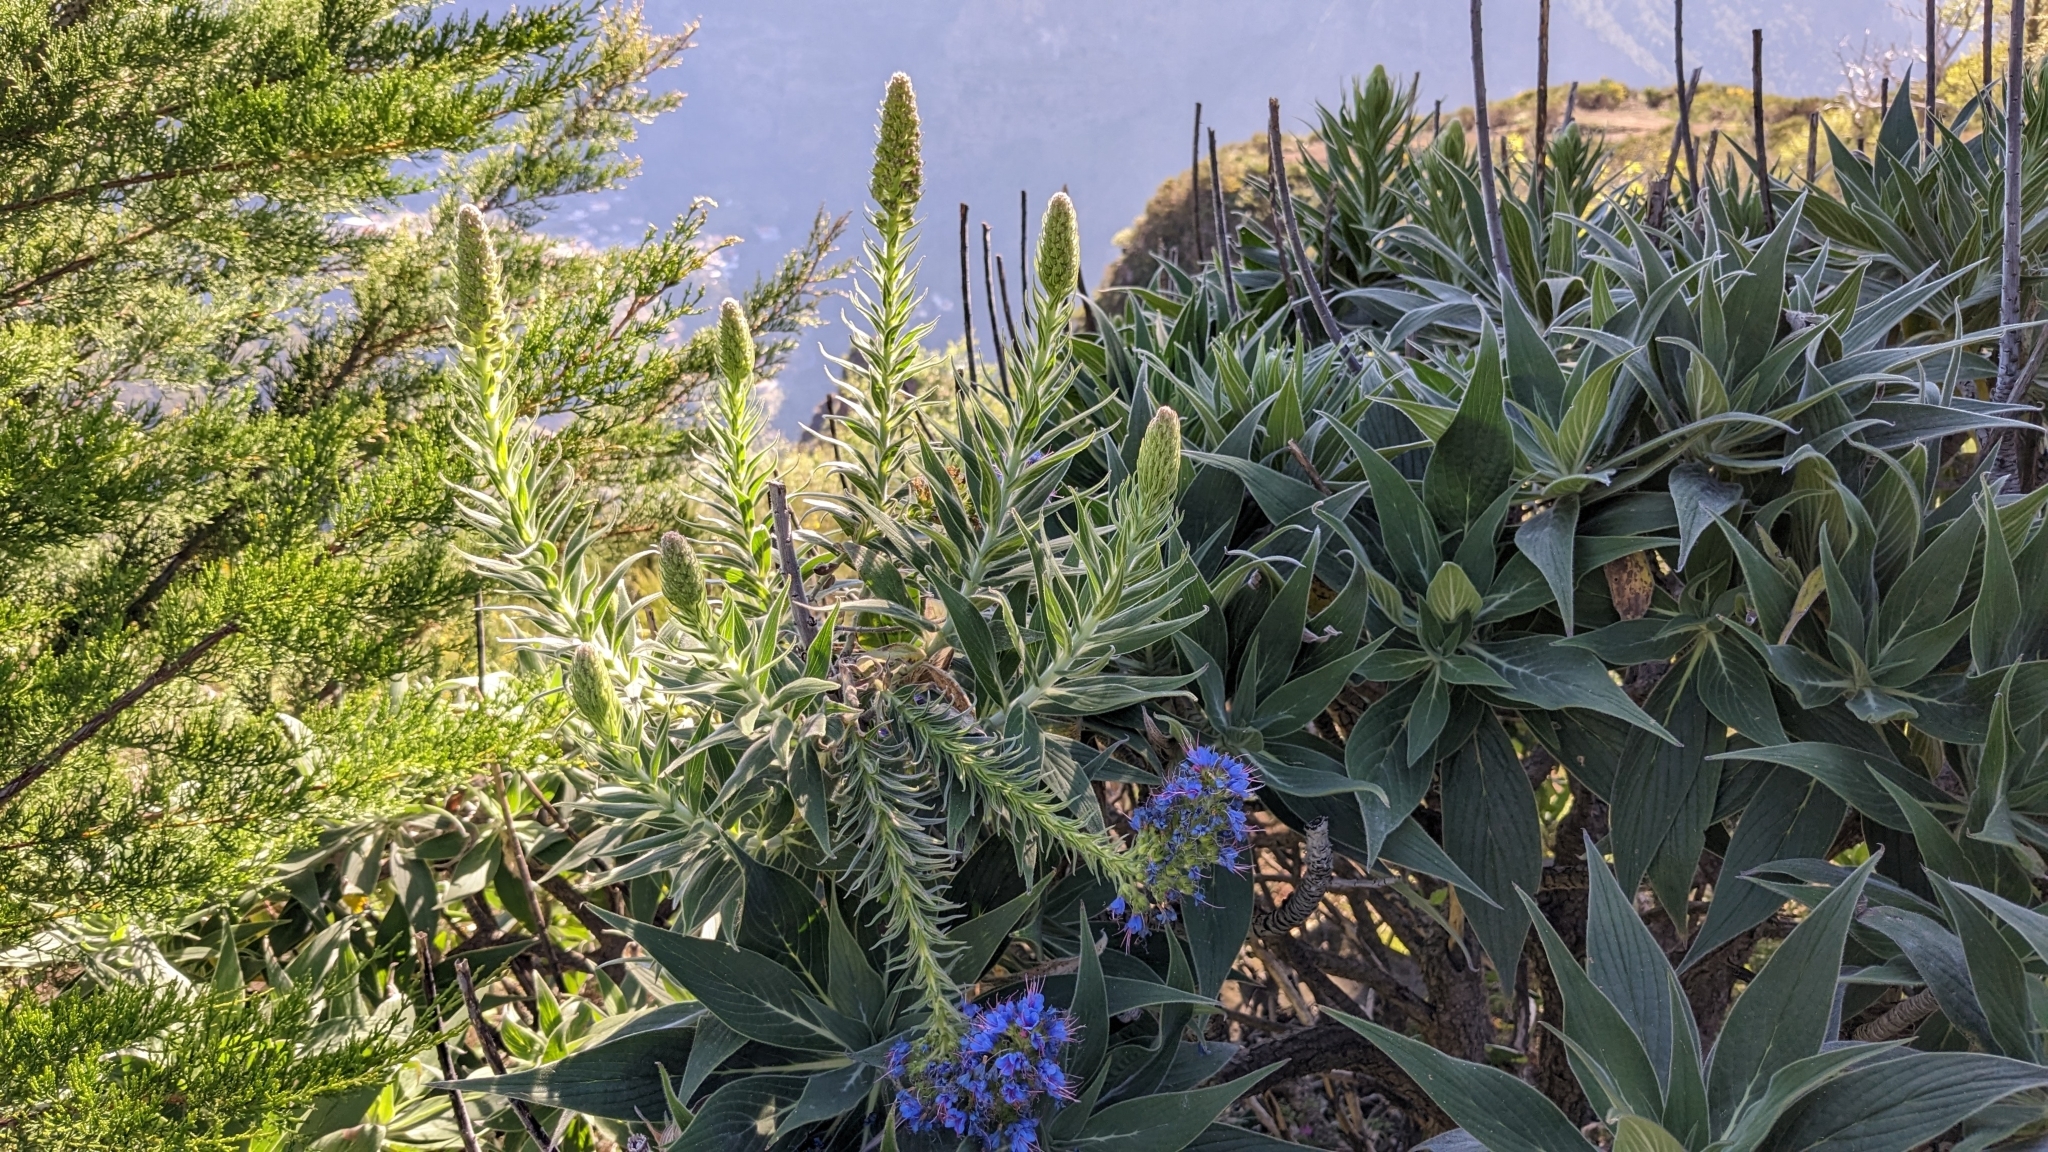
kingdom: Plantae
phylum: Tracheophyta
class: Magnoliopsida
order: Boraginales
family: Boraginaceae
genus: Echium
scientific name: Echium candicans
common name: Pride of madeira
